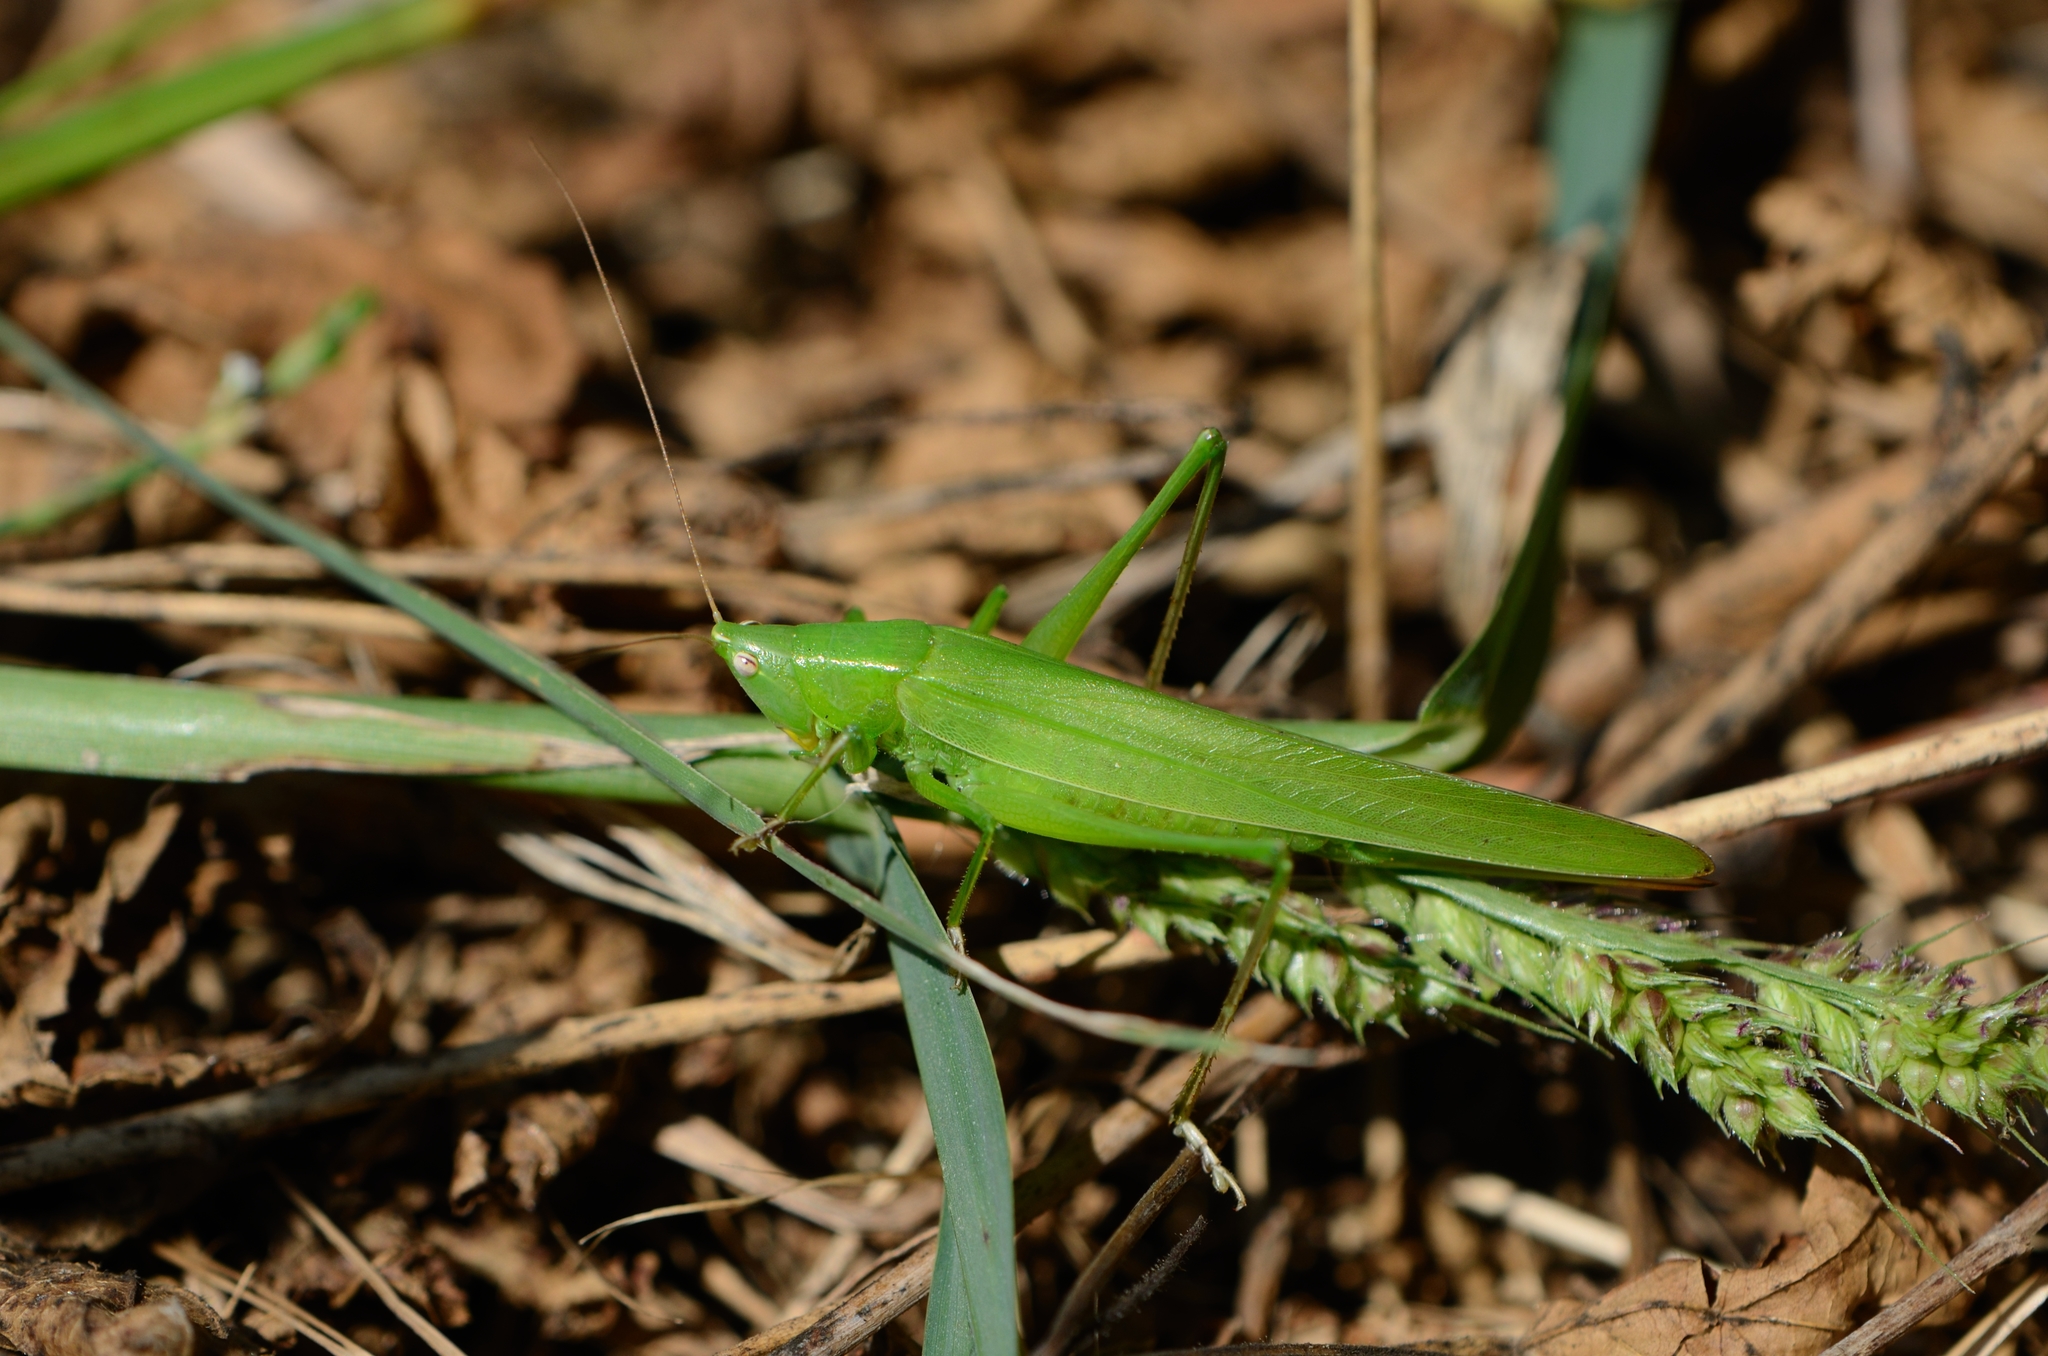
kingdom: Animalia
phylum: Arthropoda
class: Insecta
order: Orthoptera
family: Tettigoniidae
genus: Ruspolia
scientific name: Ruspolia nitidula
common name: Large conehead
